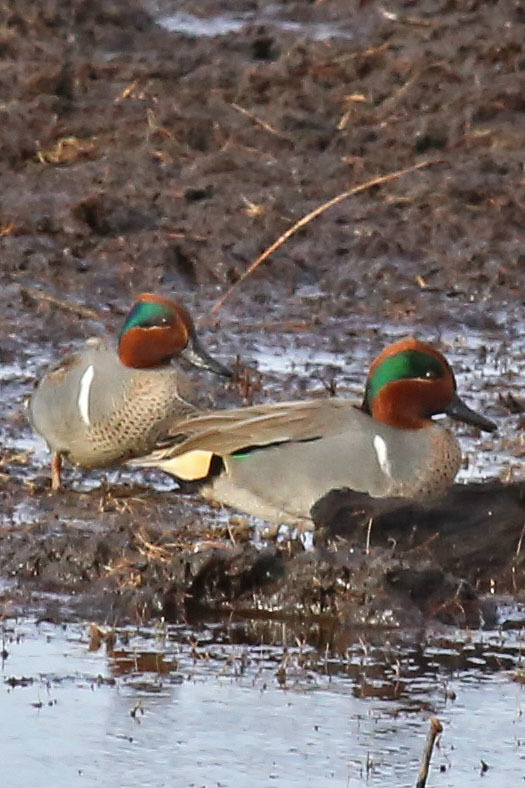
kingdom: Animalia
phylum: Chordata
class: Aves
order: Anseriformes
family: Anatidae
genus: Anas
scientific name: Anas crecca
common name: Eurasian teal
